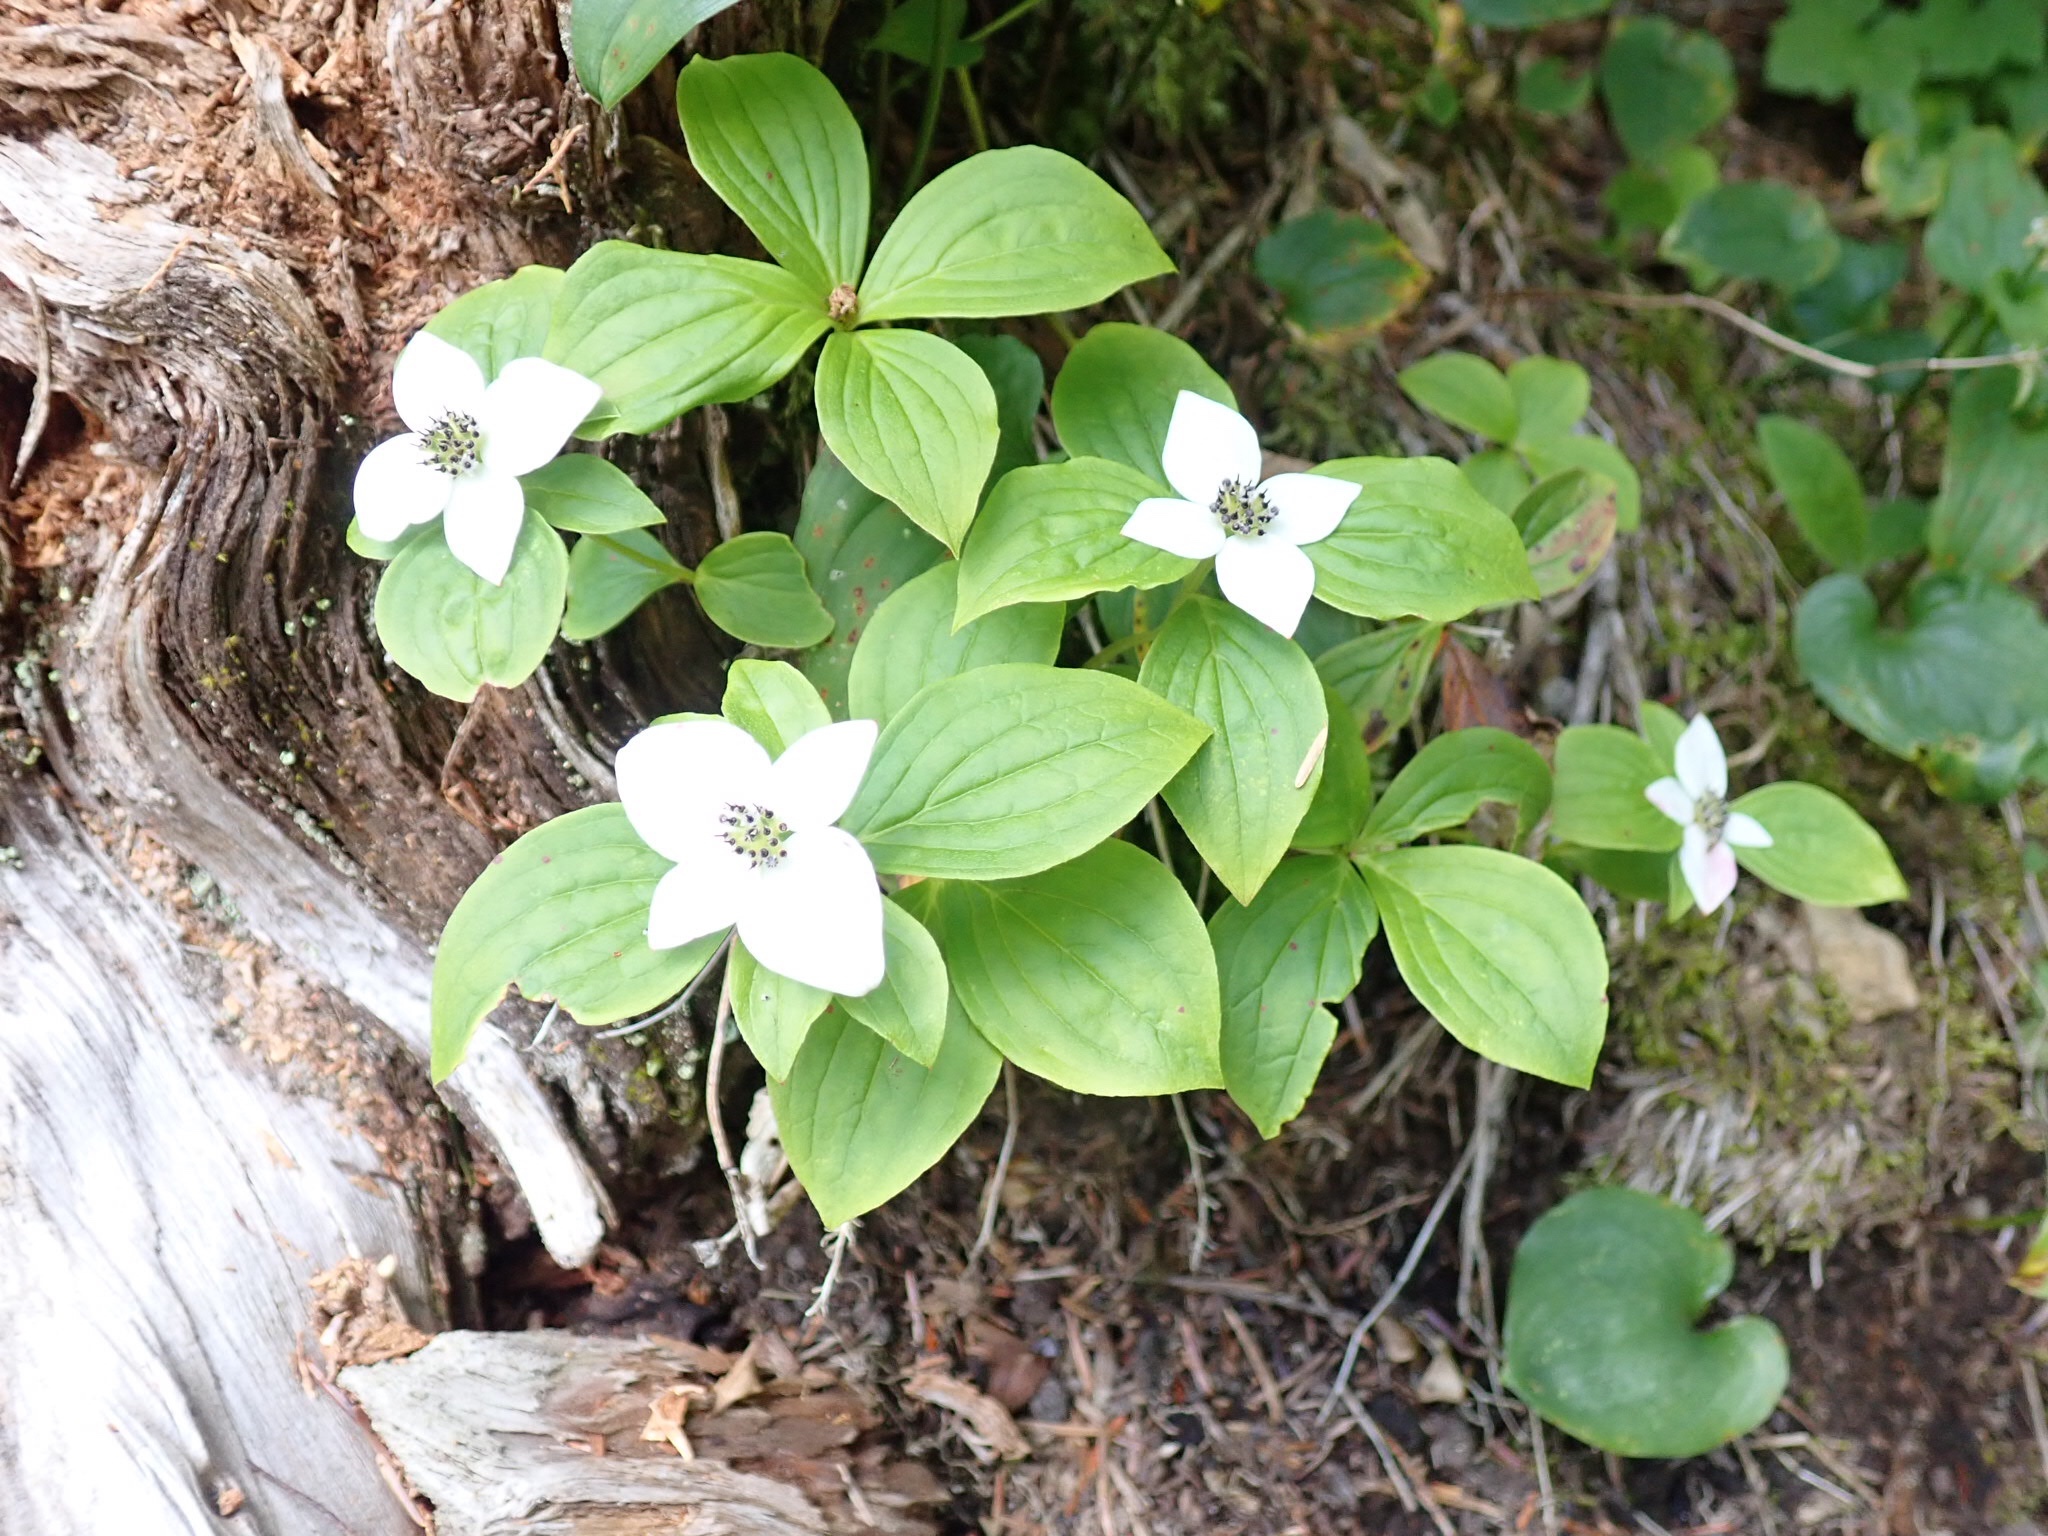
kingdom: Plantae
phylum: Tracheophyta
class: Magnoliopsida
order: Cornales
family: Cornaceae
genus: Cornus
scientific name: Cornus unalaschkensis
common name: Alaska bunchberry
